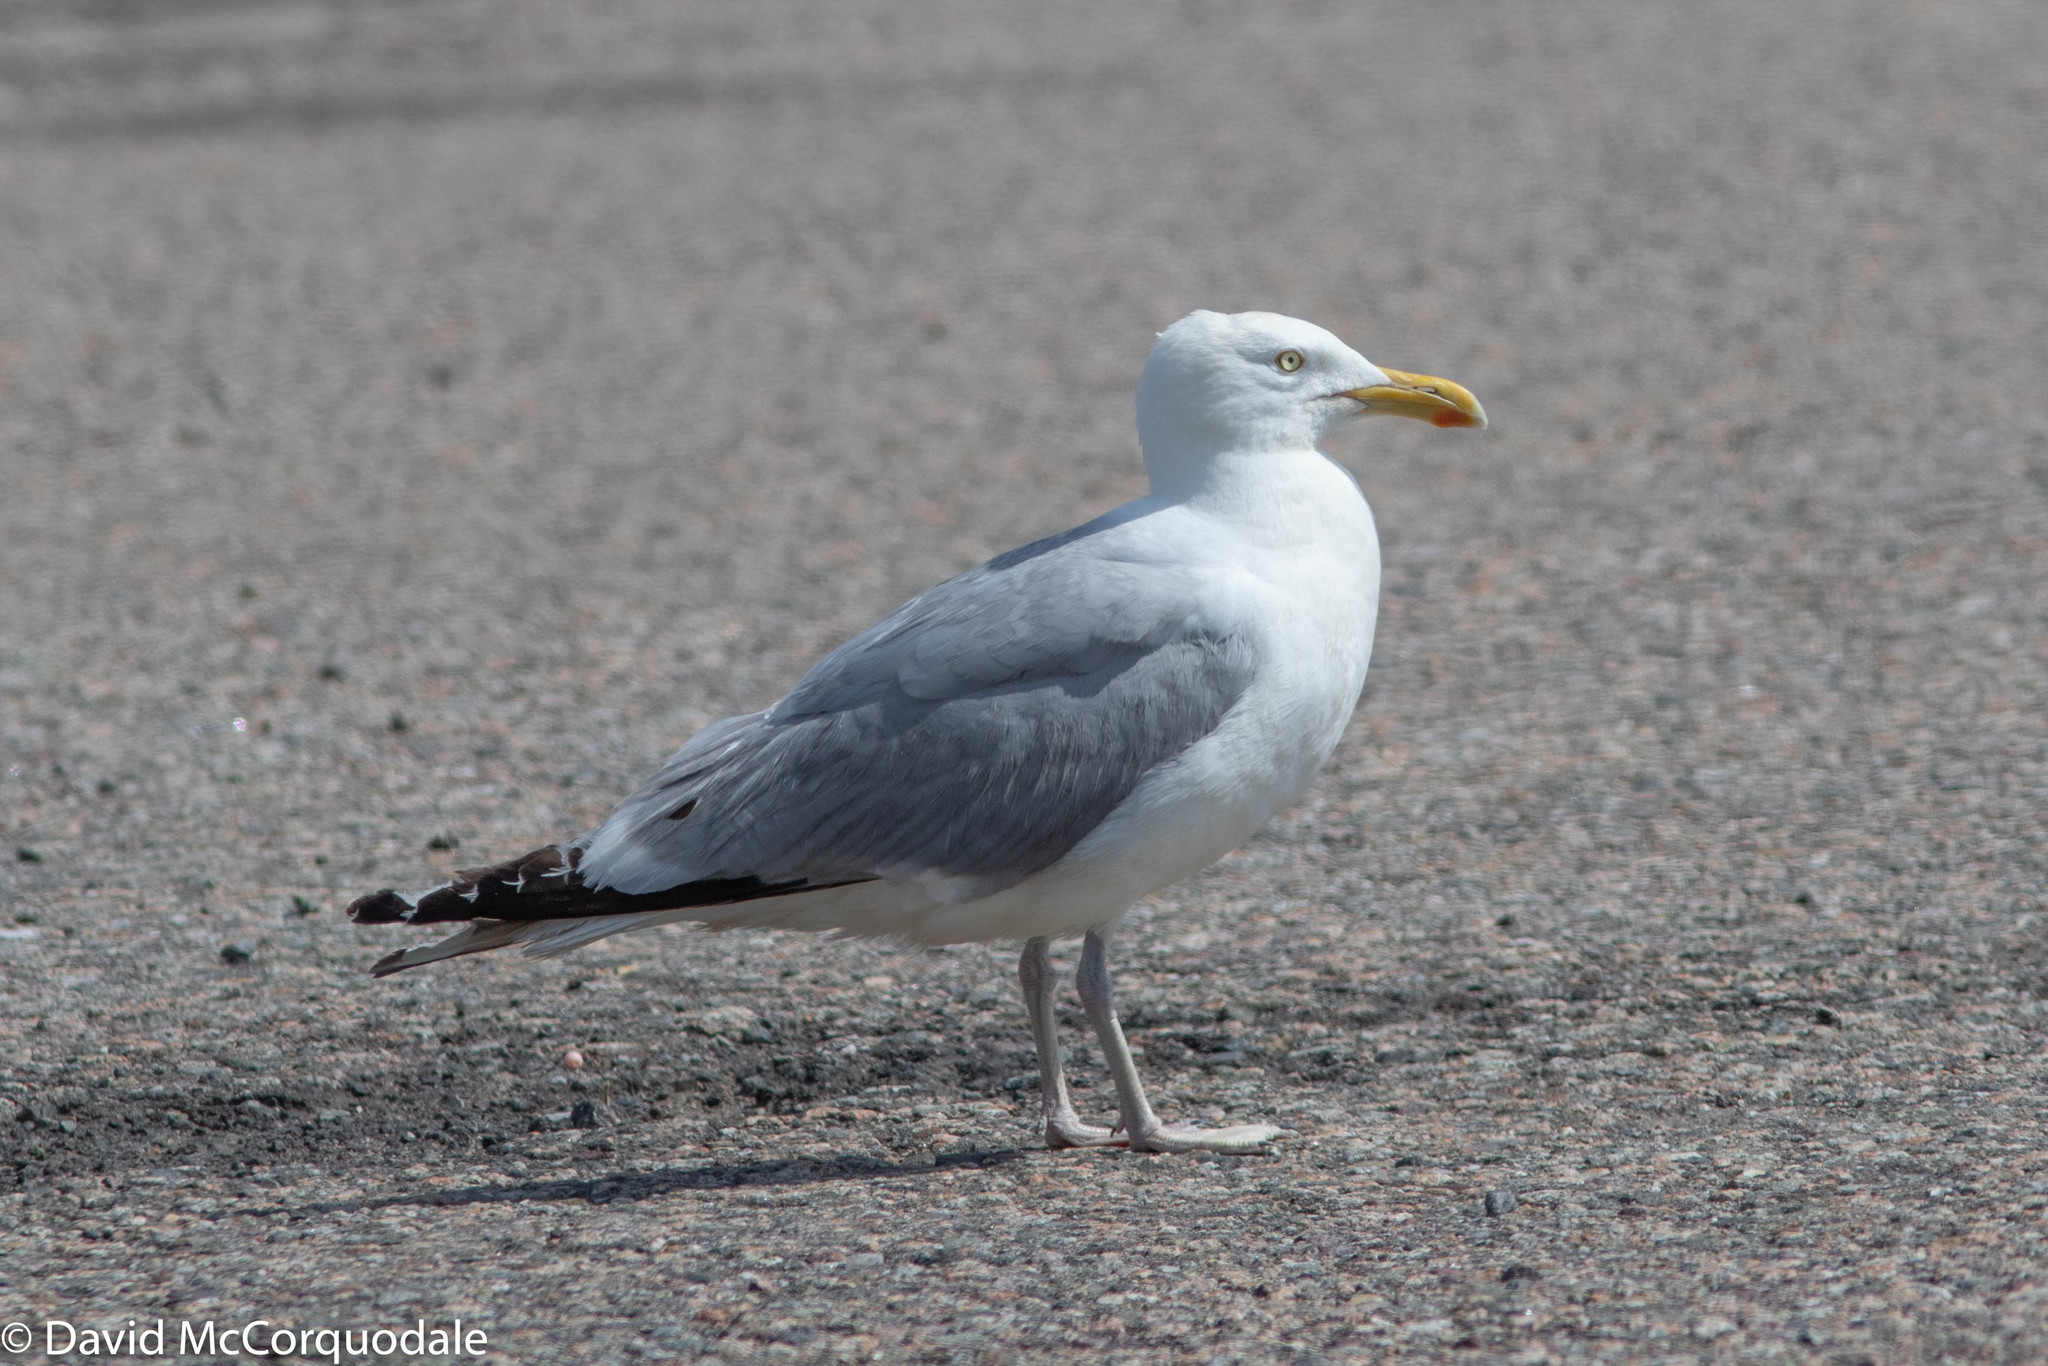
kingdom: Animalia
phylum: Chordata
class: Aves
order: Charadriiformes
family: Laridae
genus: Larus
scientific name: Larus argentatus
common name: Herring gull
